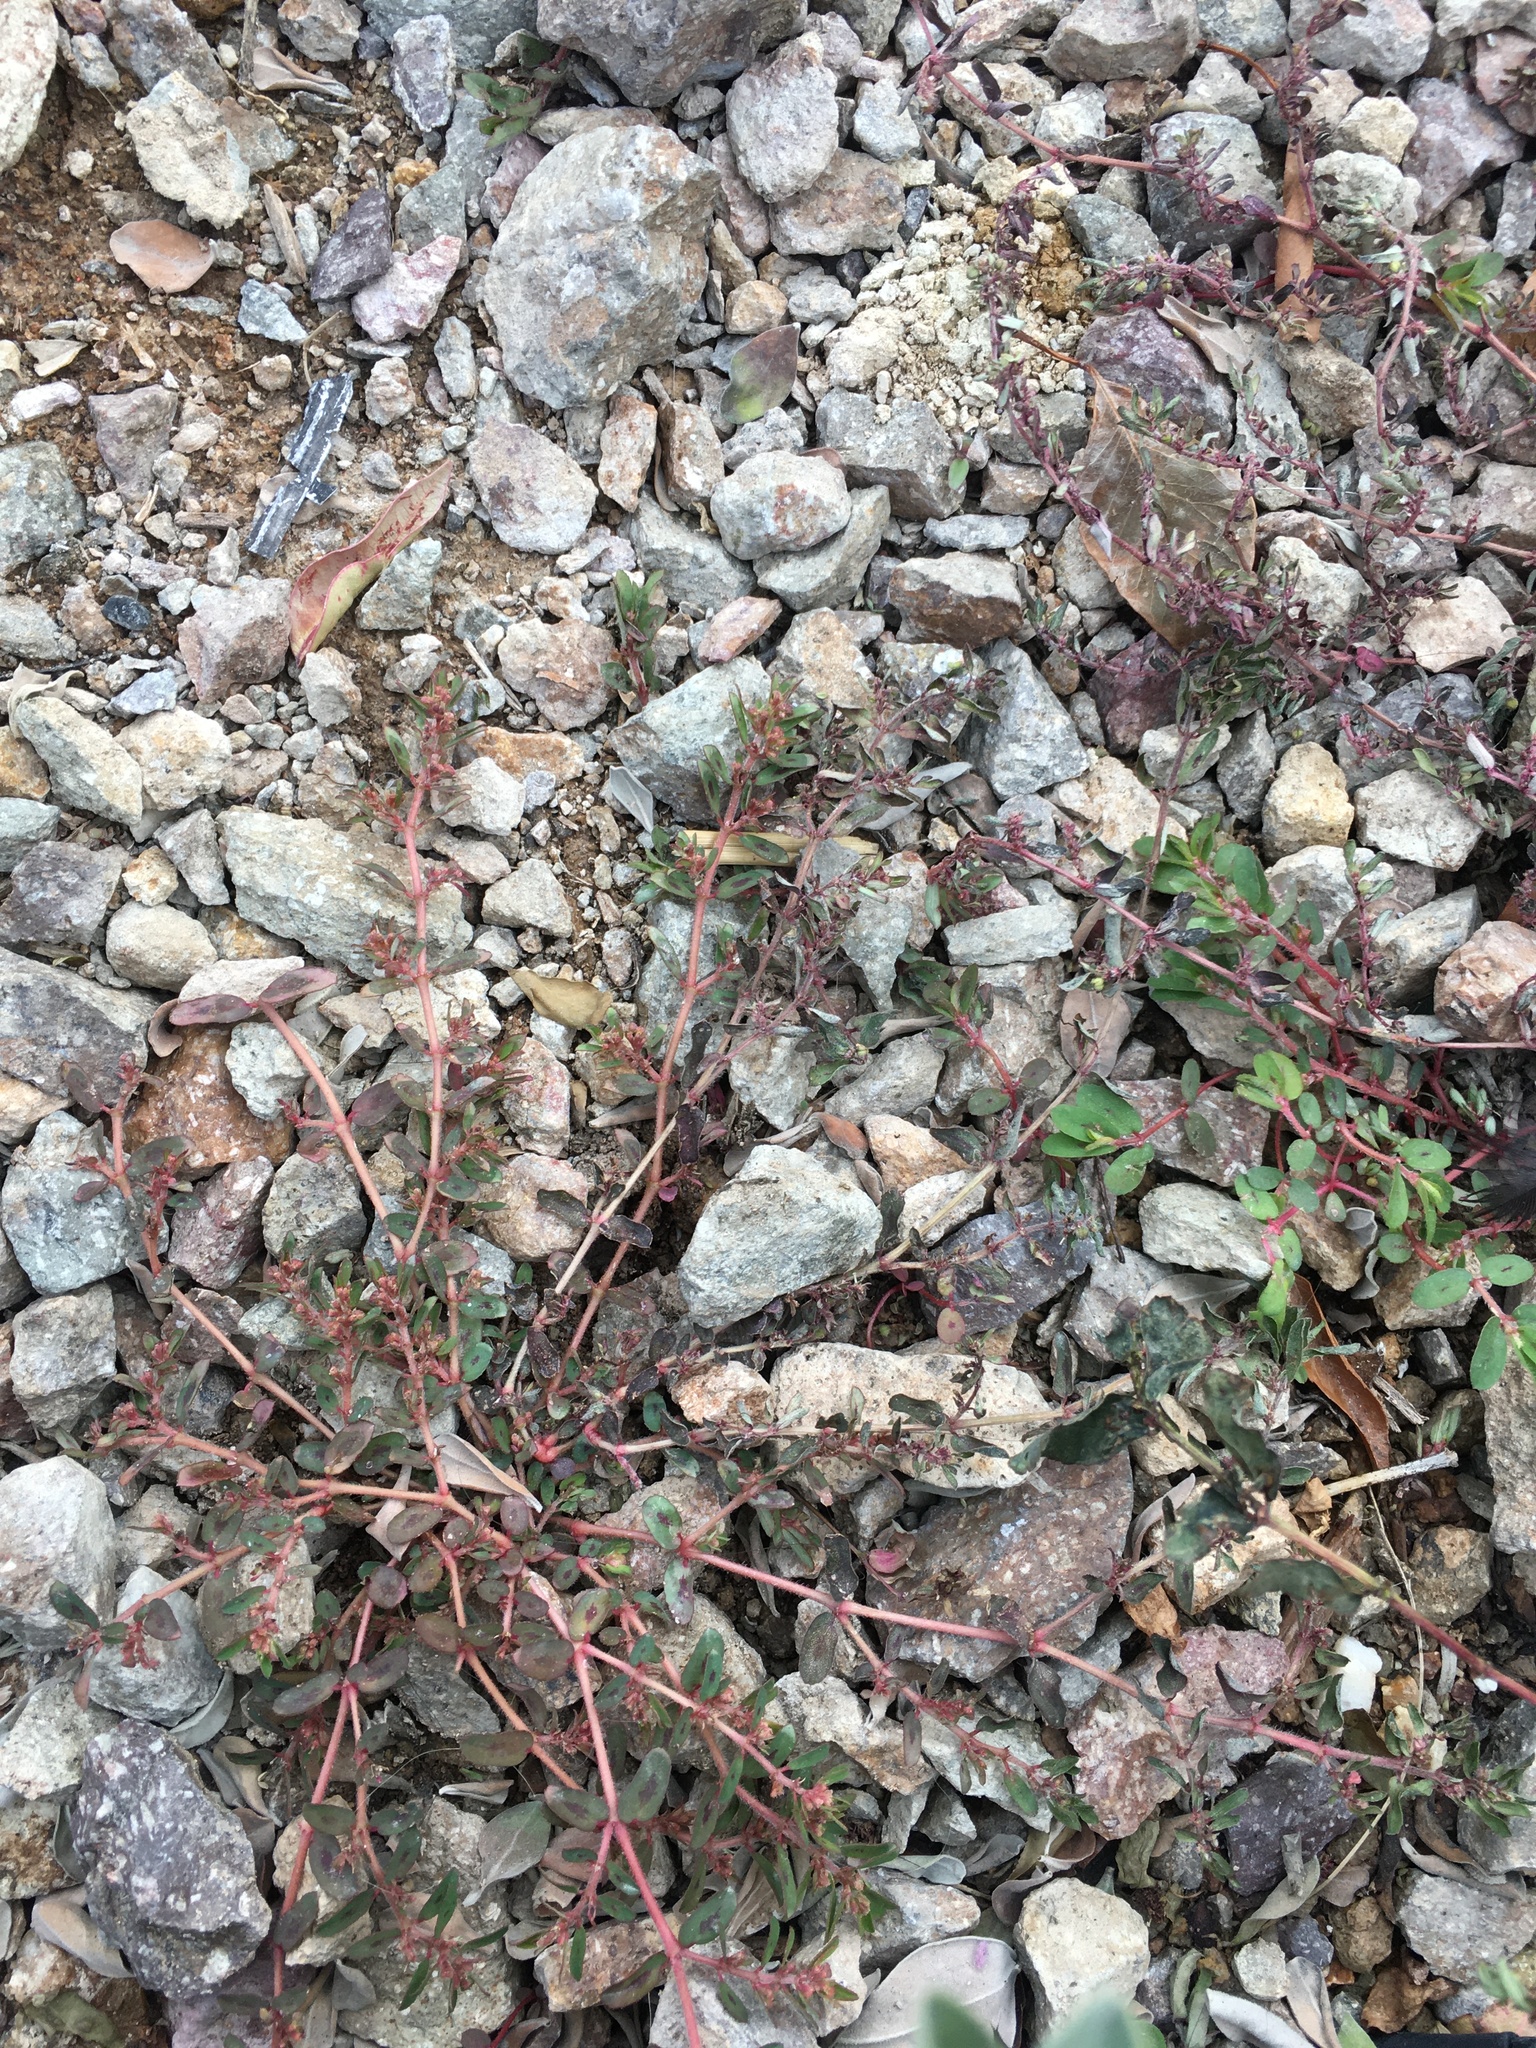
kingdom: Plantae
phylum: Tracheophyta
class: Magnoliopsida
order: Malpighiales
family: Euphorbiaceae
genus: Euphorbia
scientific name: Euphorbia maculata
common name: Spotted spurge
